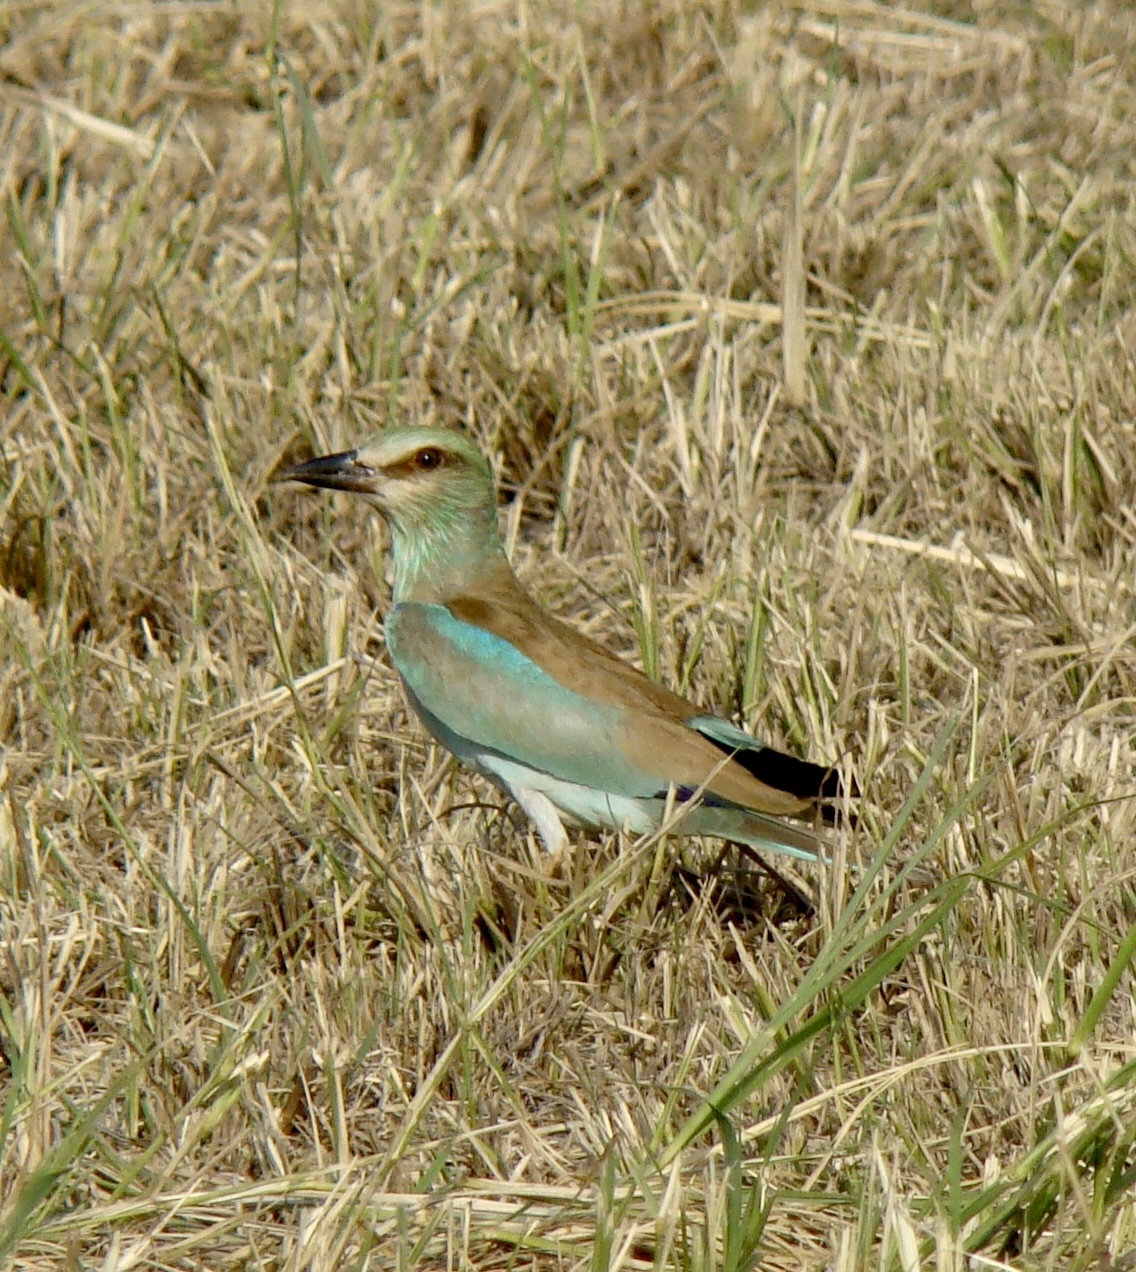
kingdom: Animalia
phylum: Chordata
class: Aves
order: Coraciiformes
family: Coraciidae
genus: Coracias
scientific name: Coracias garrulus
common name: European roller
